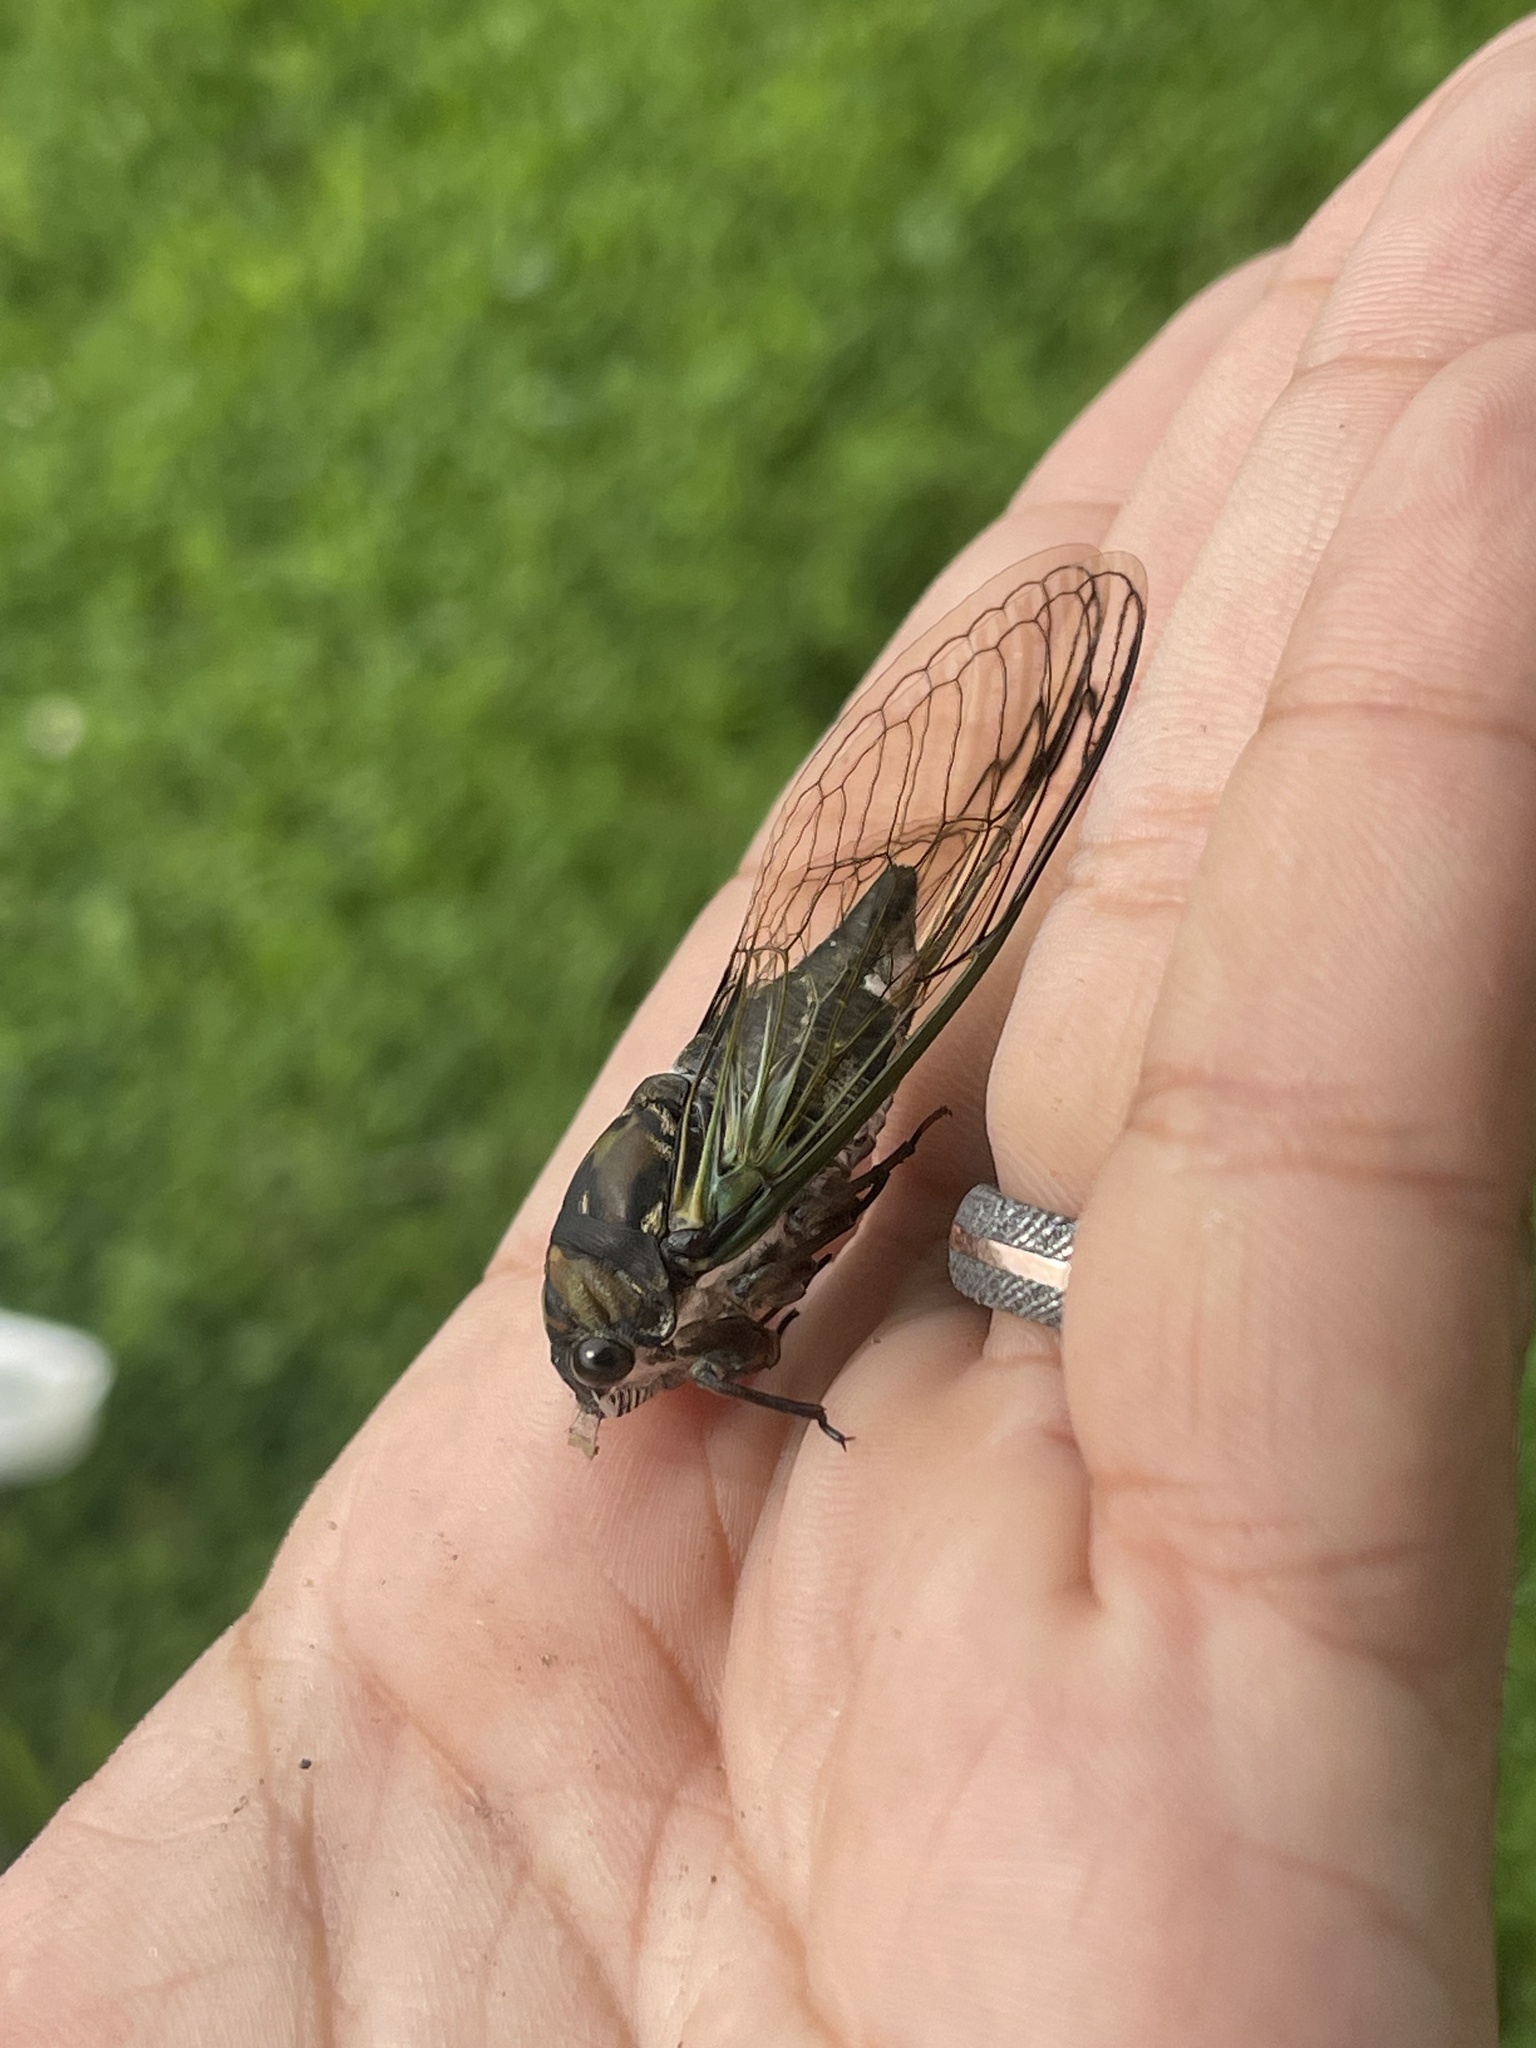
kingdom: Animalia
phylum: Arthropoda
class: Insecta
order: Hemiptera
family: Cicadidae
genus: Neotibicen
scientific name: Neotibicen lyricen
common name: Lyric cicada
